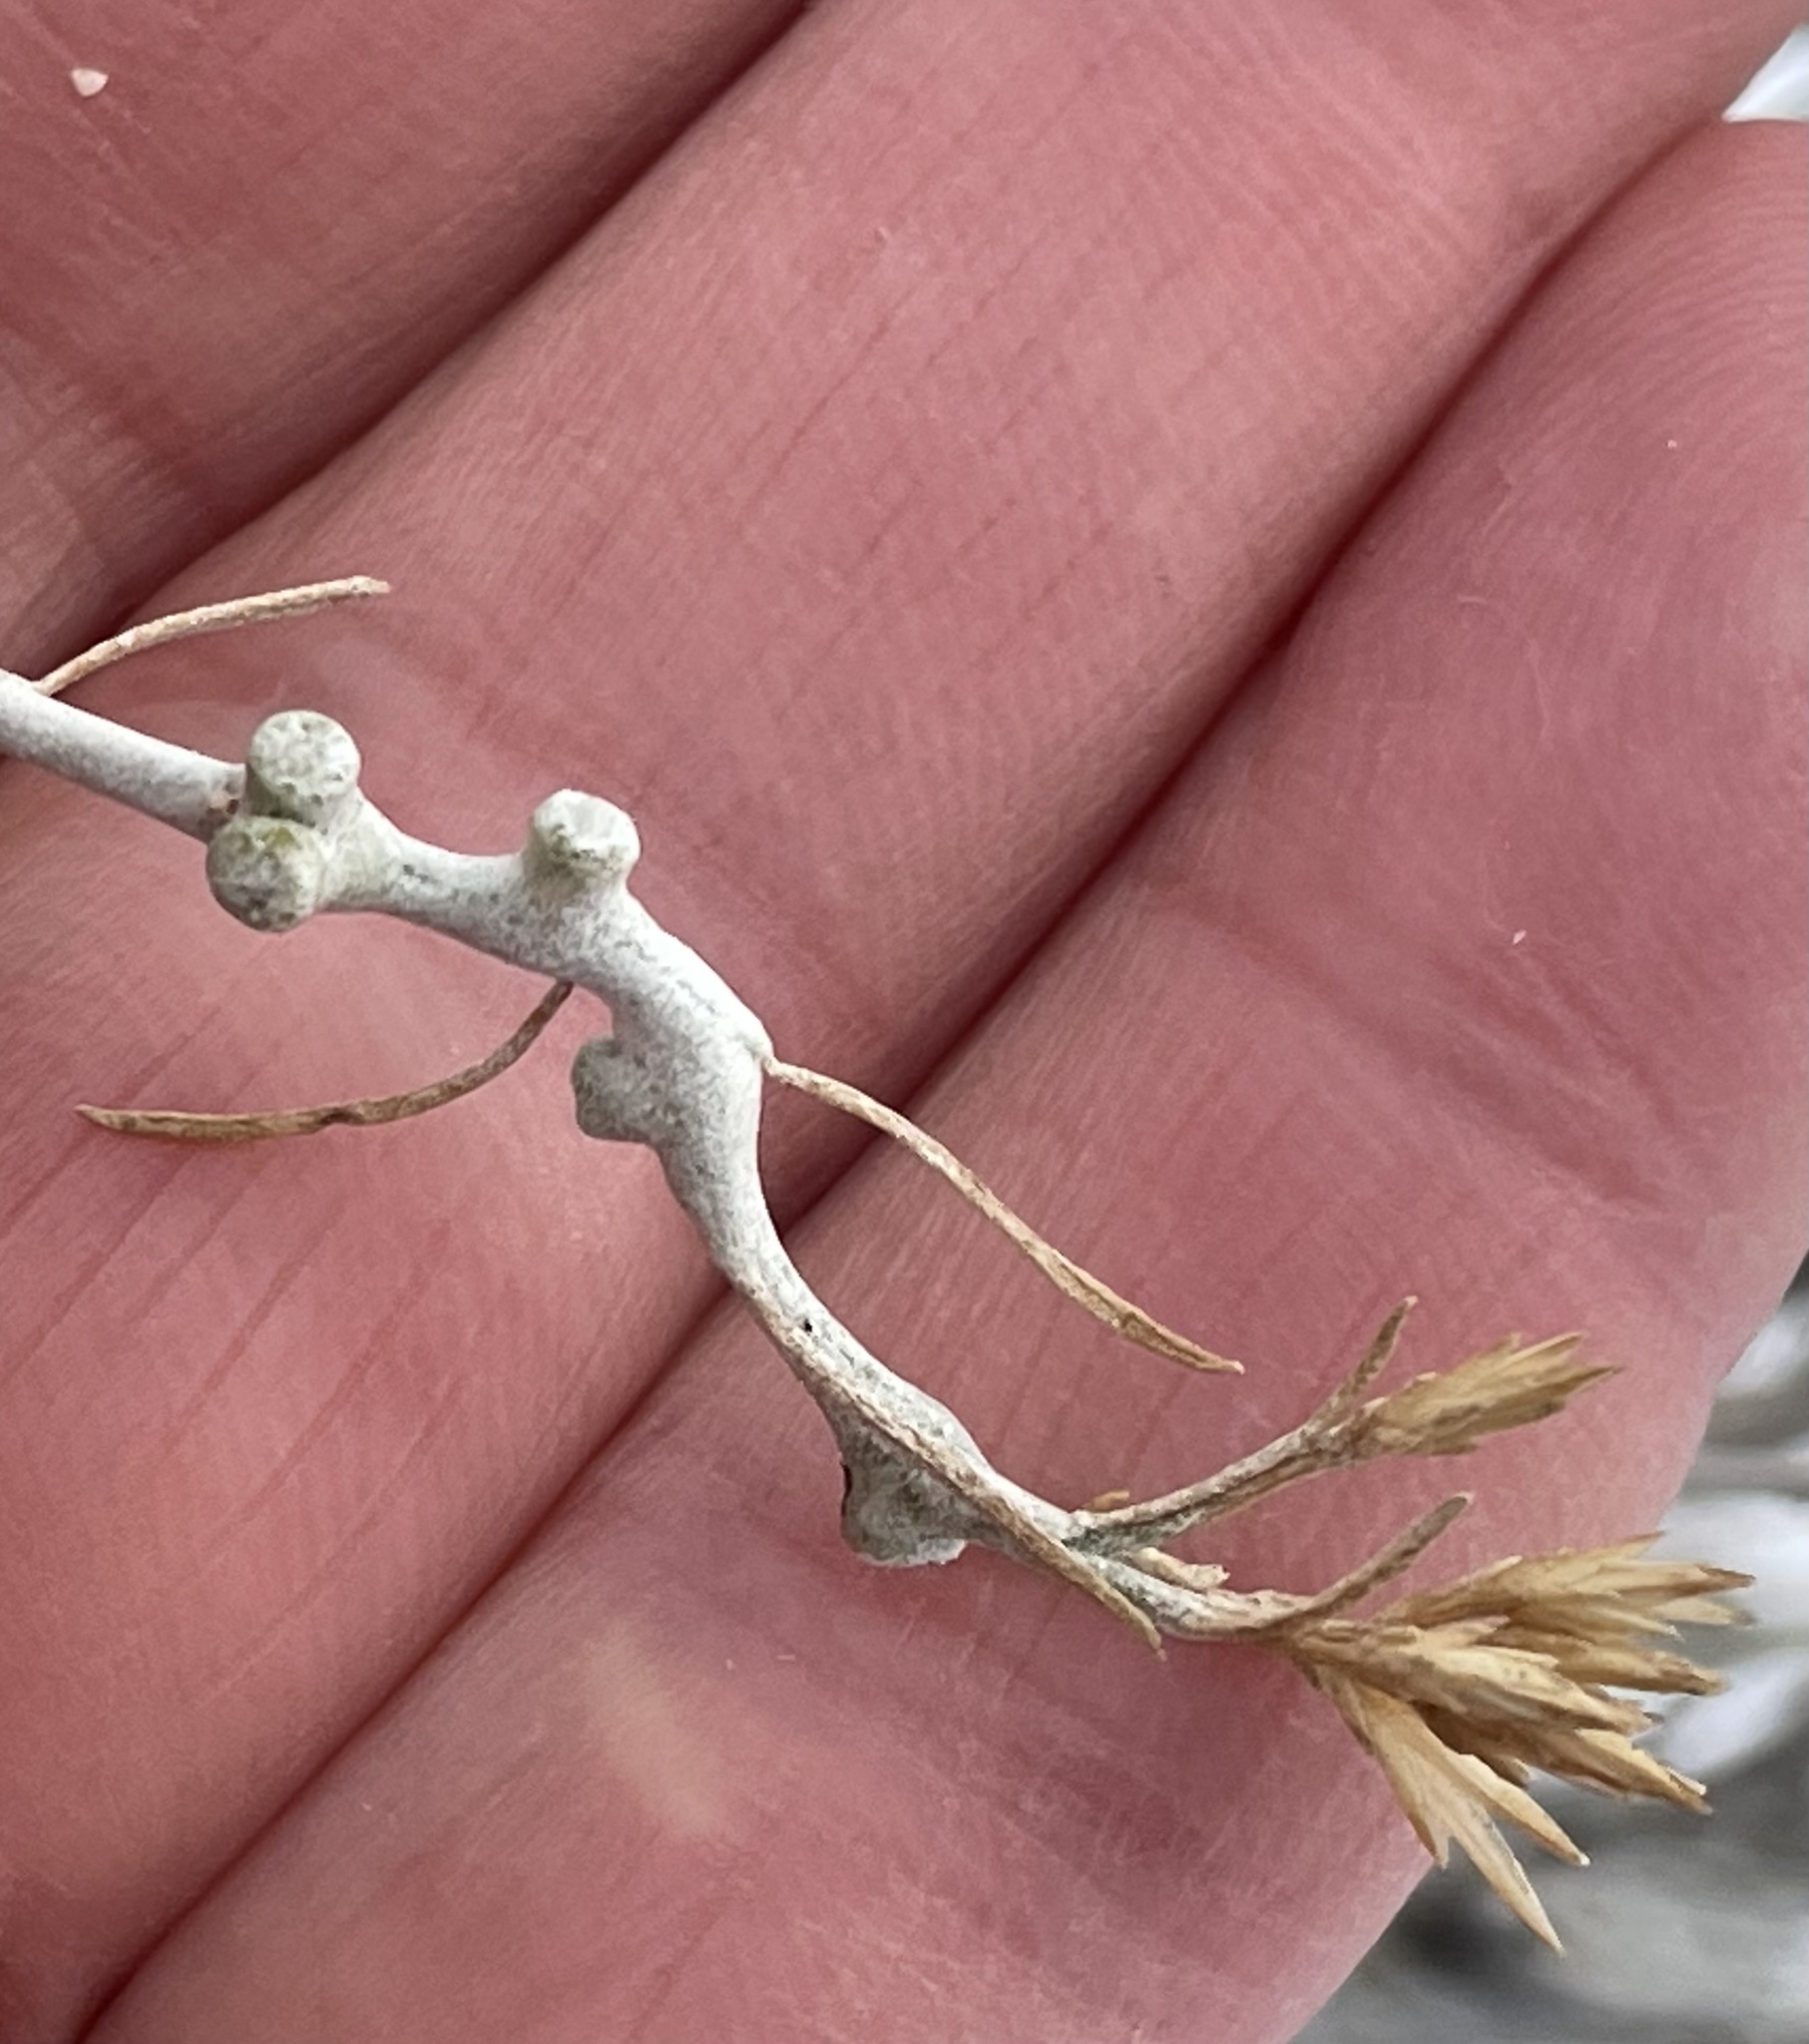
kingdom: Animalia
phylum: Arthropoda
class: Insecta
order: Diptera
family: Cecidomyiidae
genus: Rhopalomyia
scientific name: Rhopalomyia chrysothamni
